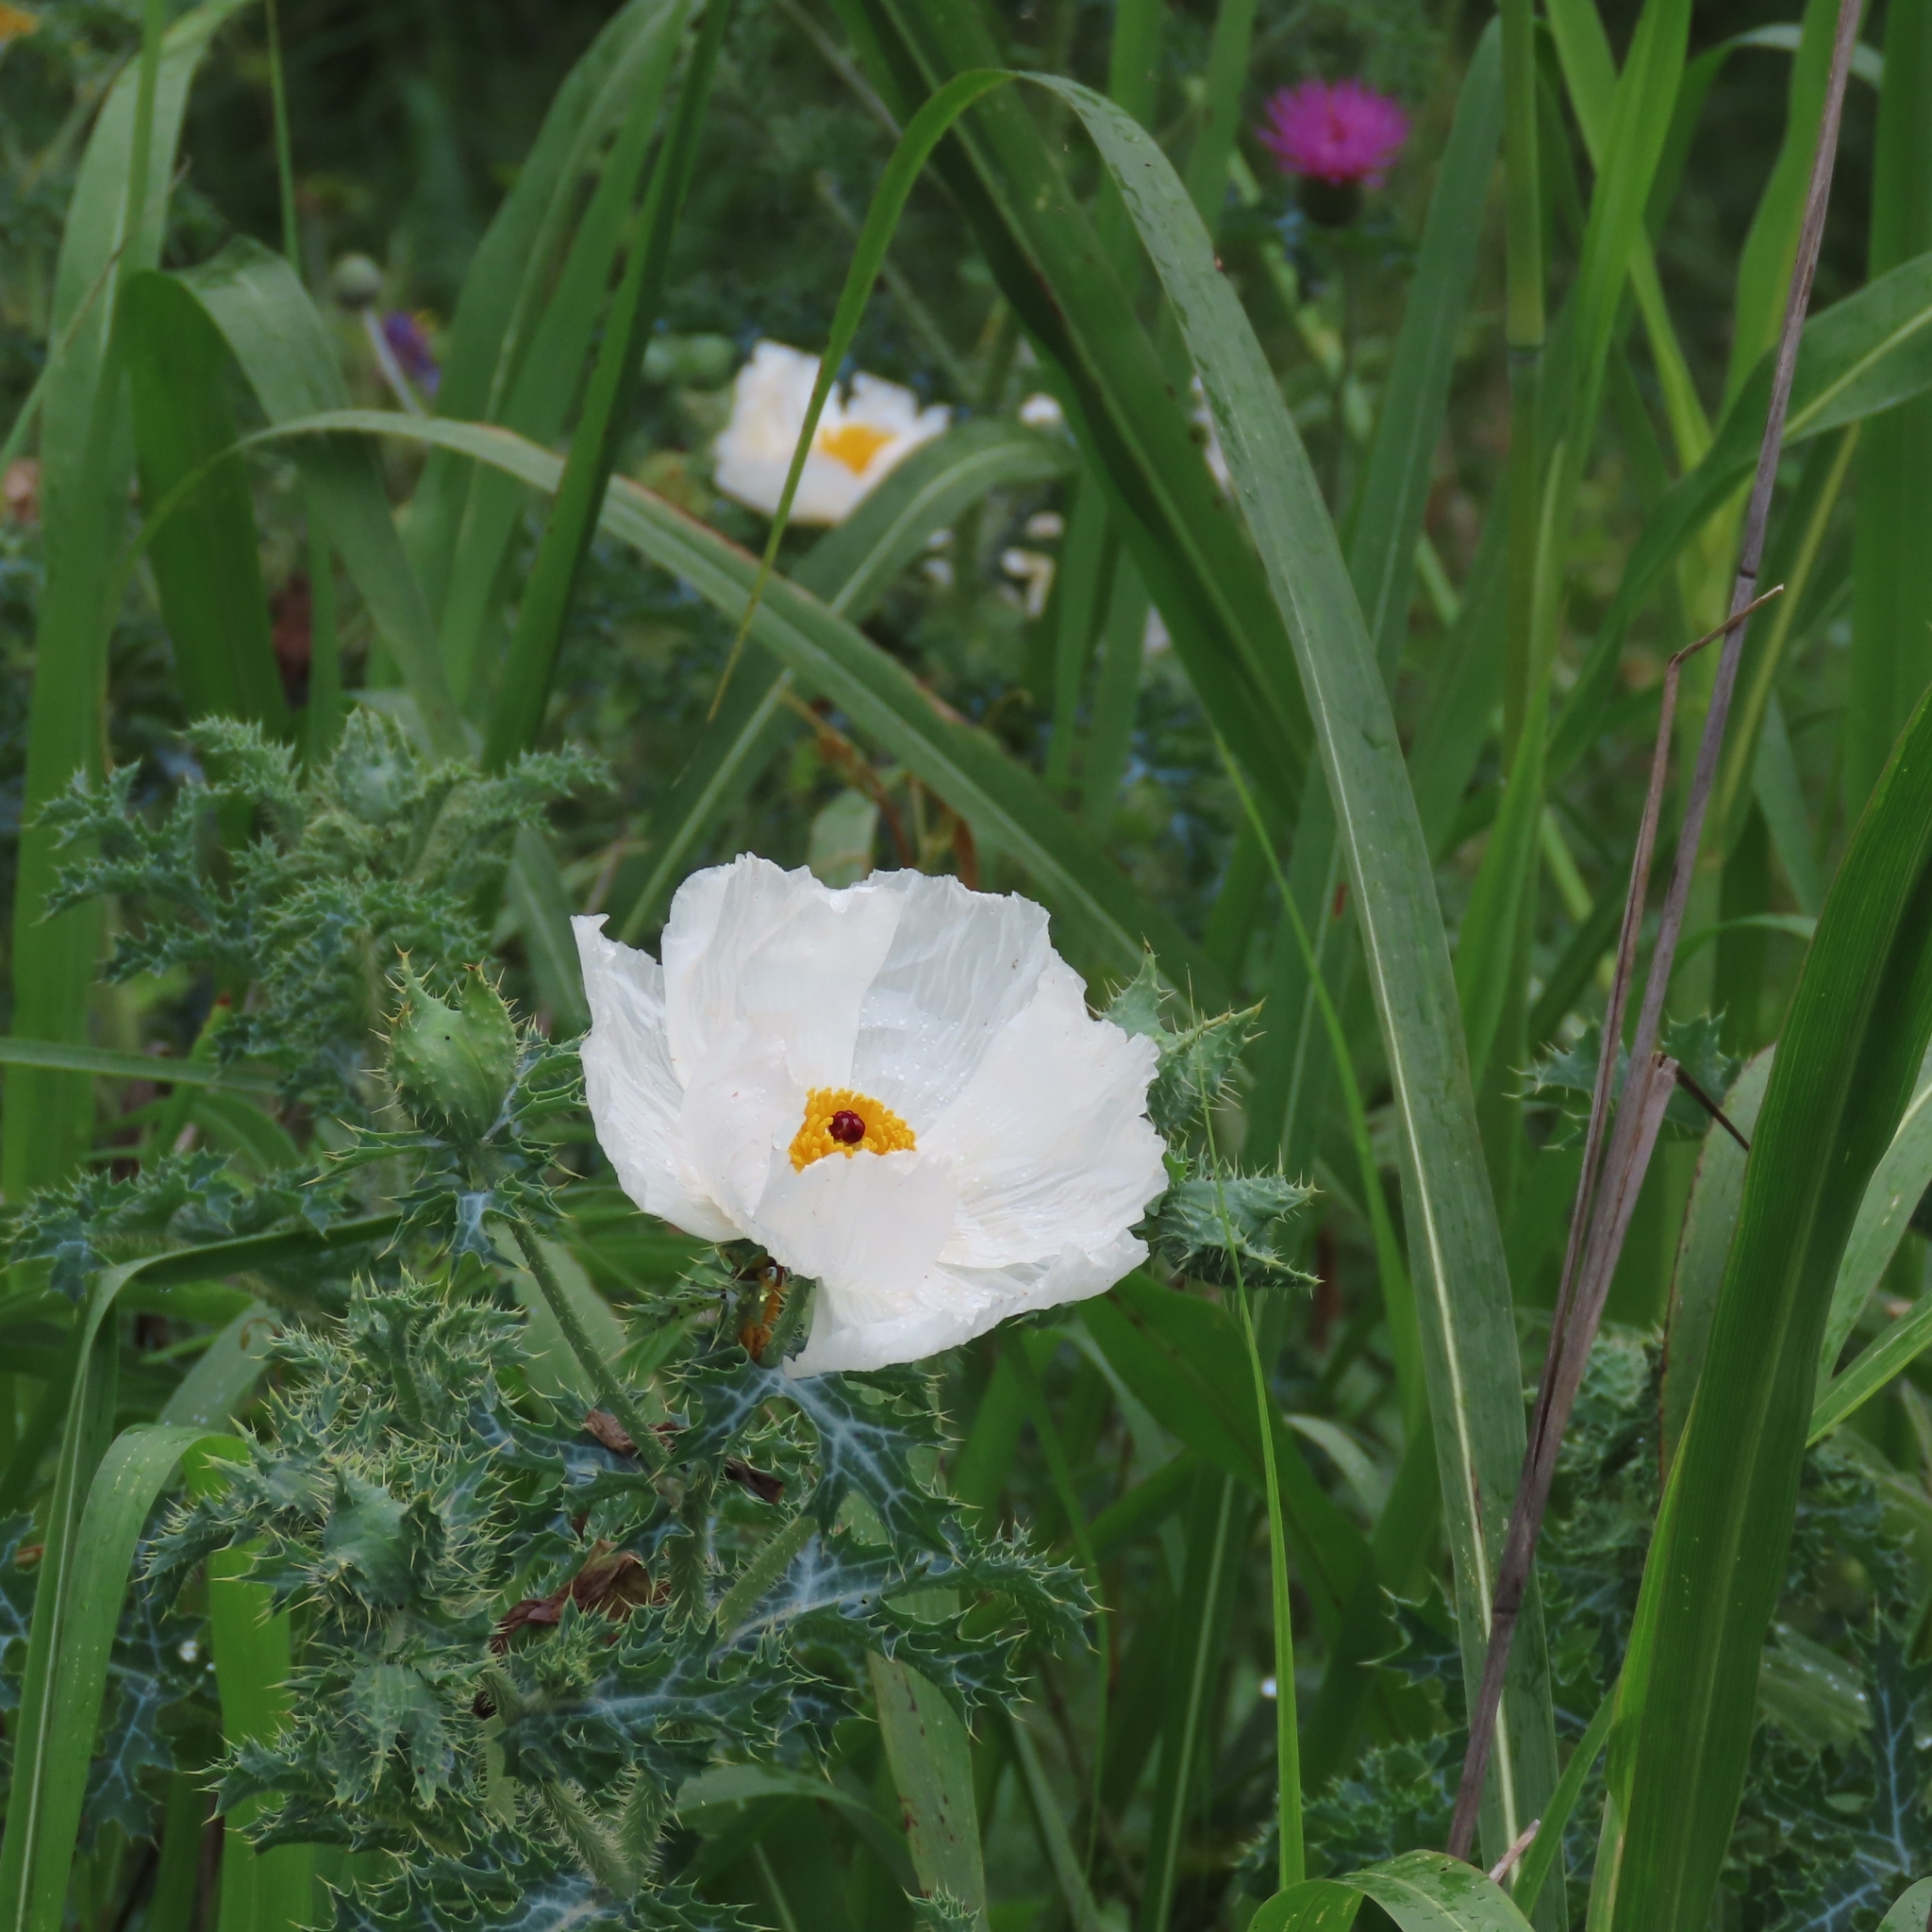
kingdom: Plantae
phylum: Tracheophyta
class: Magnoliopsida
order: Ranunculales
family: Papaveraceae
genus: Argemone
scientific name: Argemone albiflora
